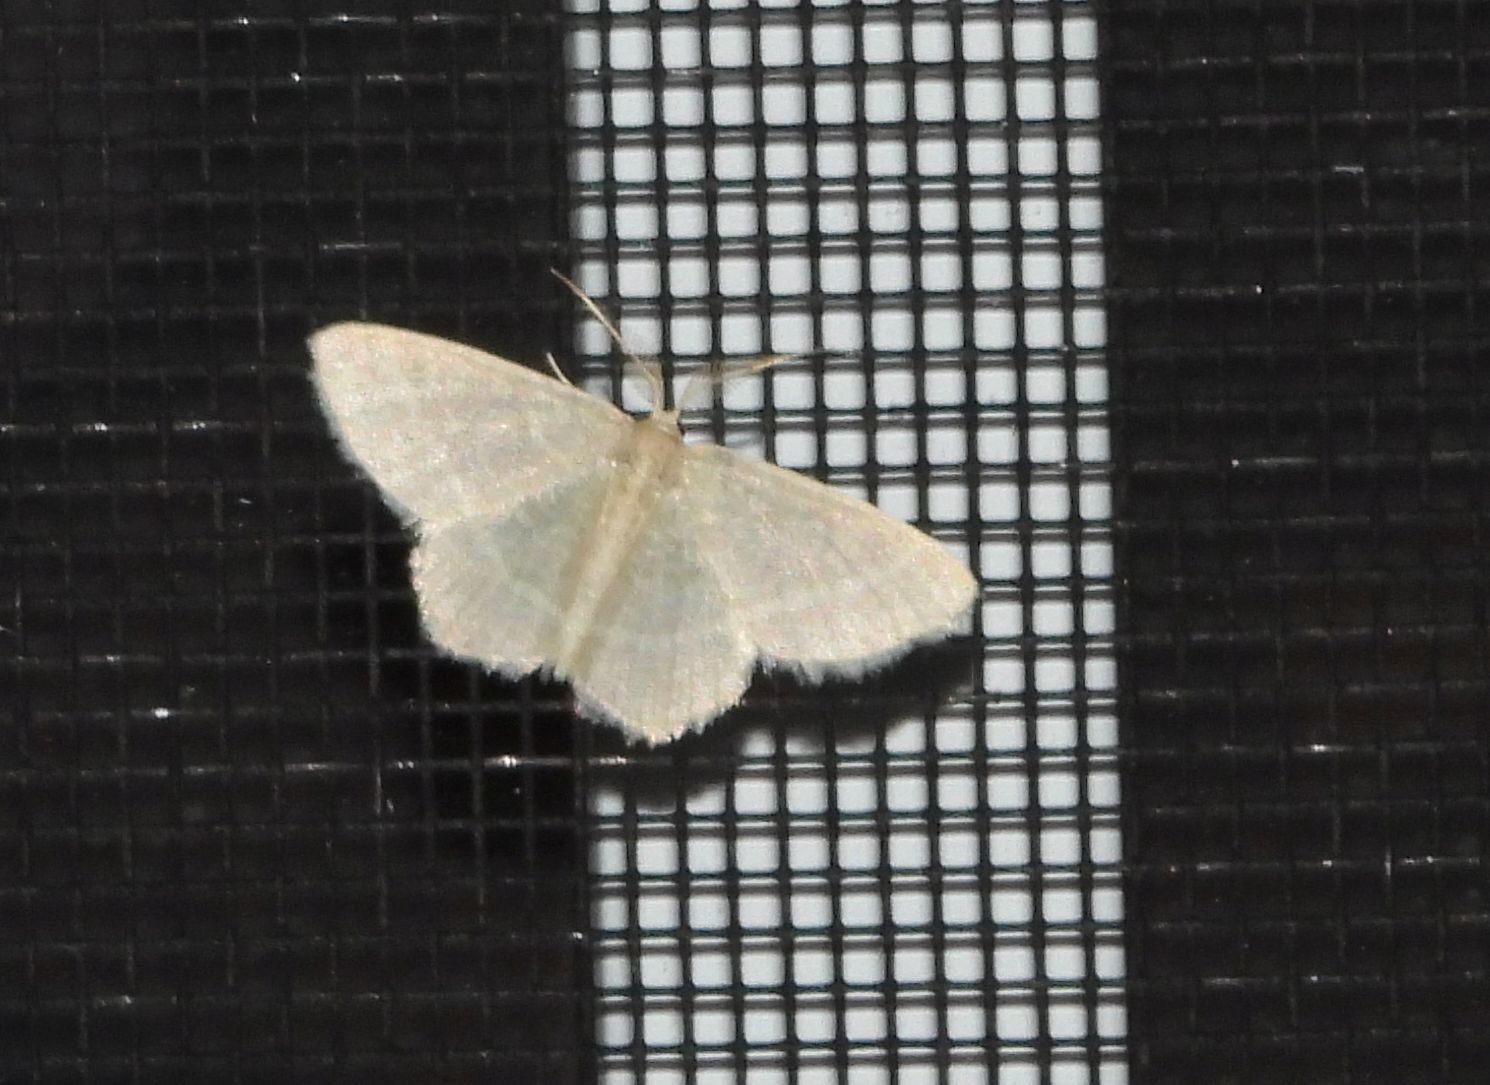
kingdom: Animalia
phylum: Arthropoda
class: Insecta
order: Lepidoptera
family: Geometridae
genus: Chlorochlamys
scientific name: Chlorochlamys chloroleucaria
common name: Blackberry looper
